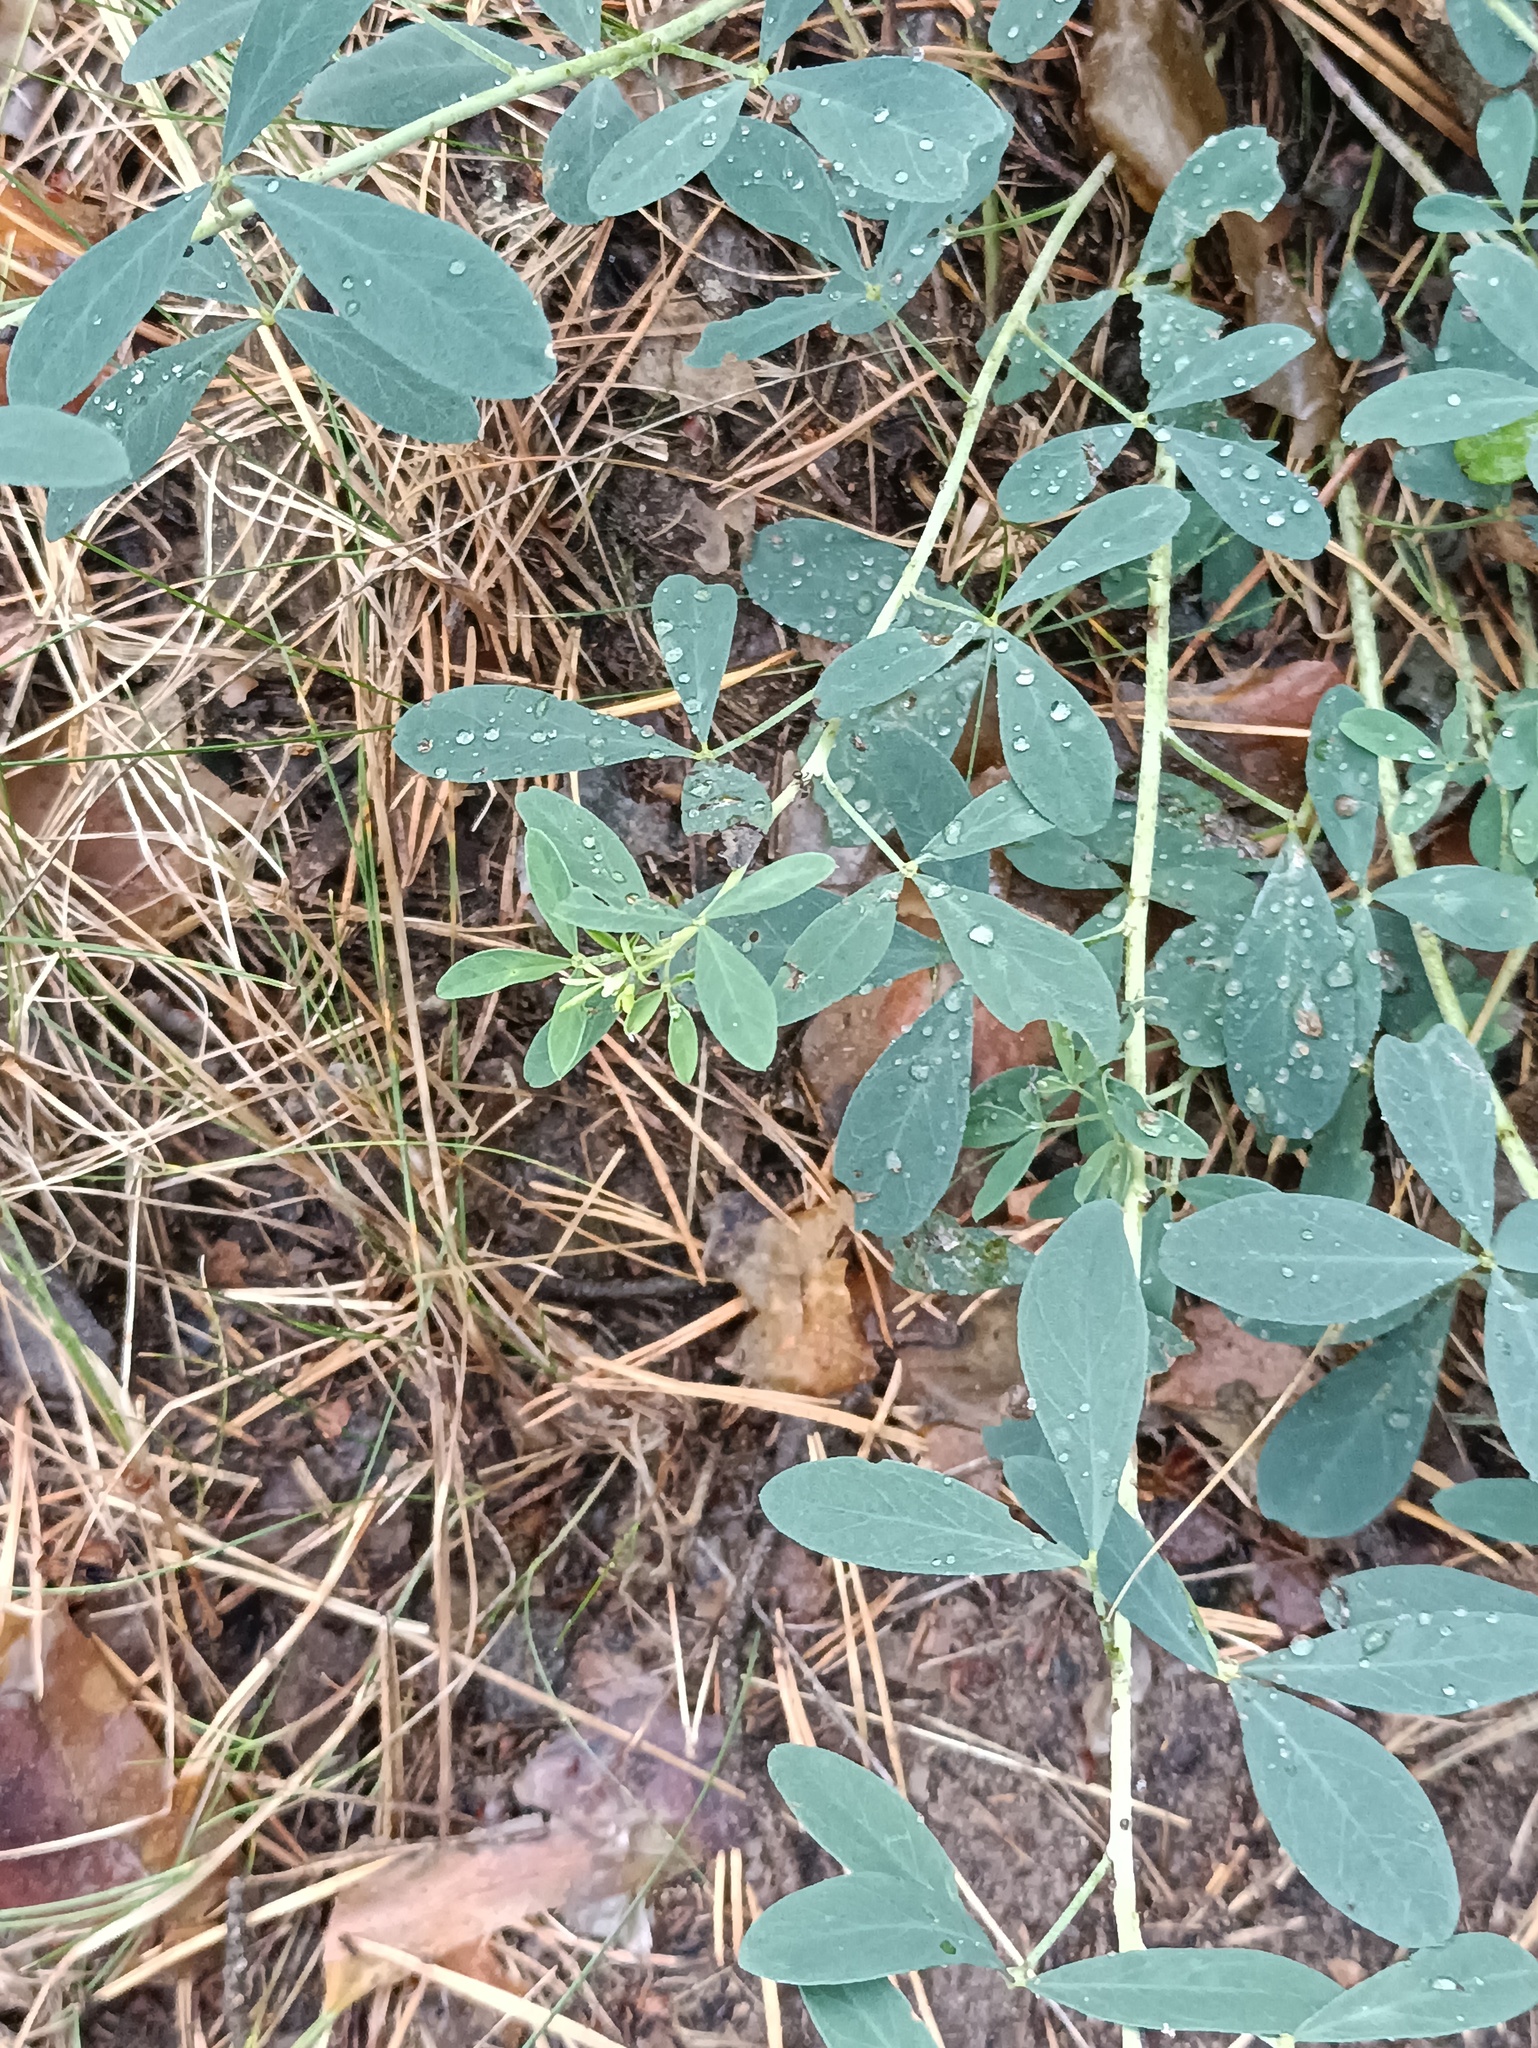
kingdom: Plantae
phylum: Tracheophyta
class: Magnoliopsida
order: Fabales
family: Fabaceae
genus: Chamaecytisus
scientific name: Chamaecytisus ruthenicus
